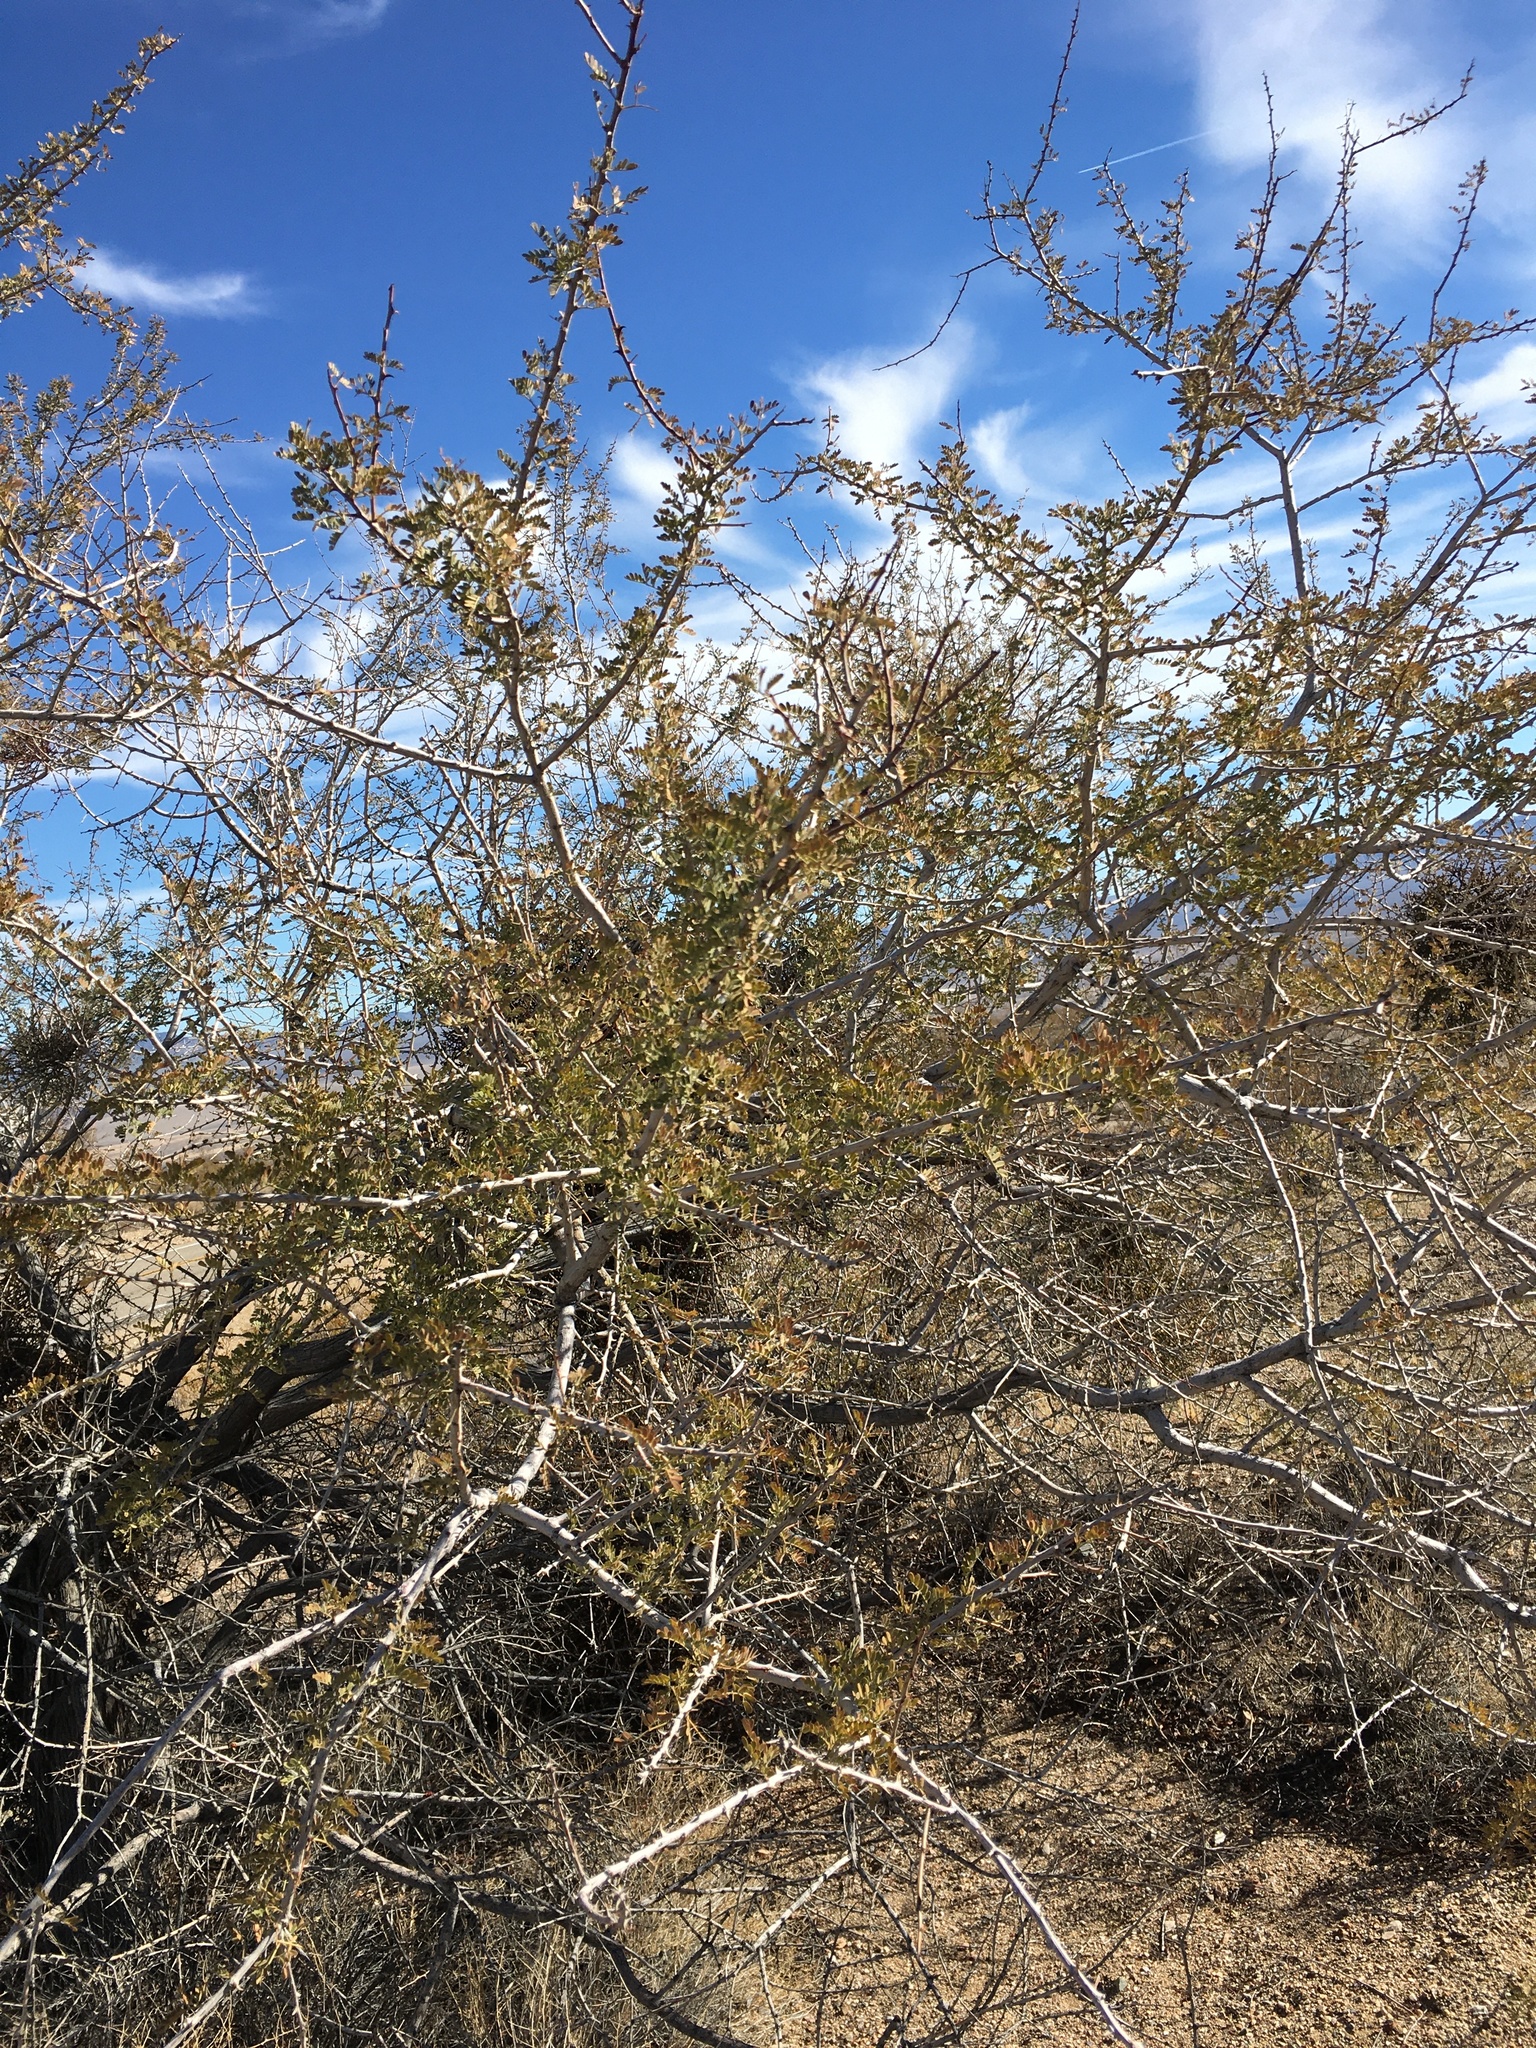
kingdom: Plantae
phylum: Tracheophyta
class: Magnoliopsida
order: Fabales
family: Fabaceae
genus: Senegalia
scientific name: Senegalia greggii
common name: Texas-mimosa
